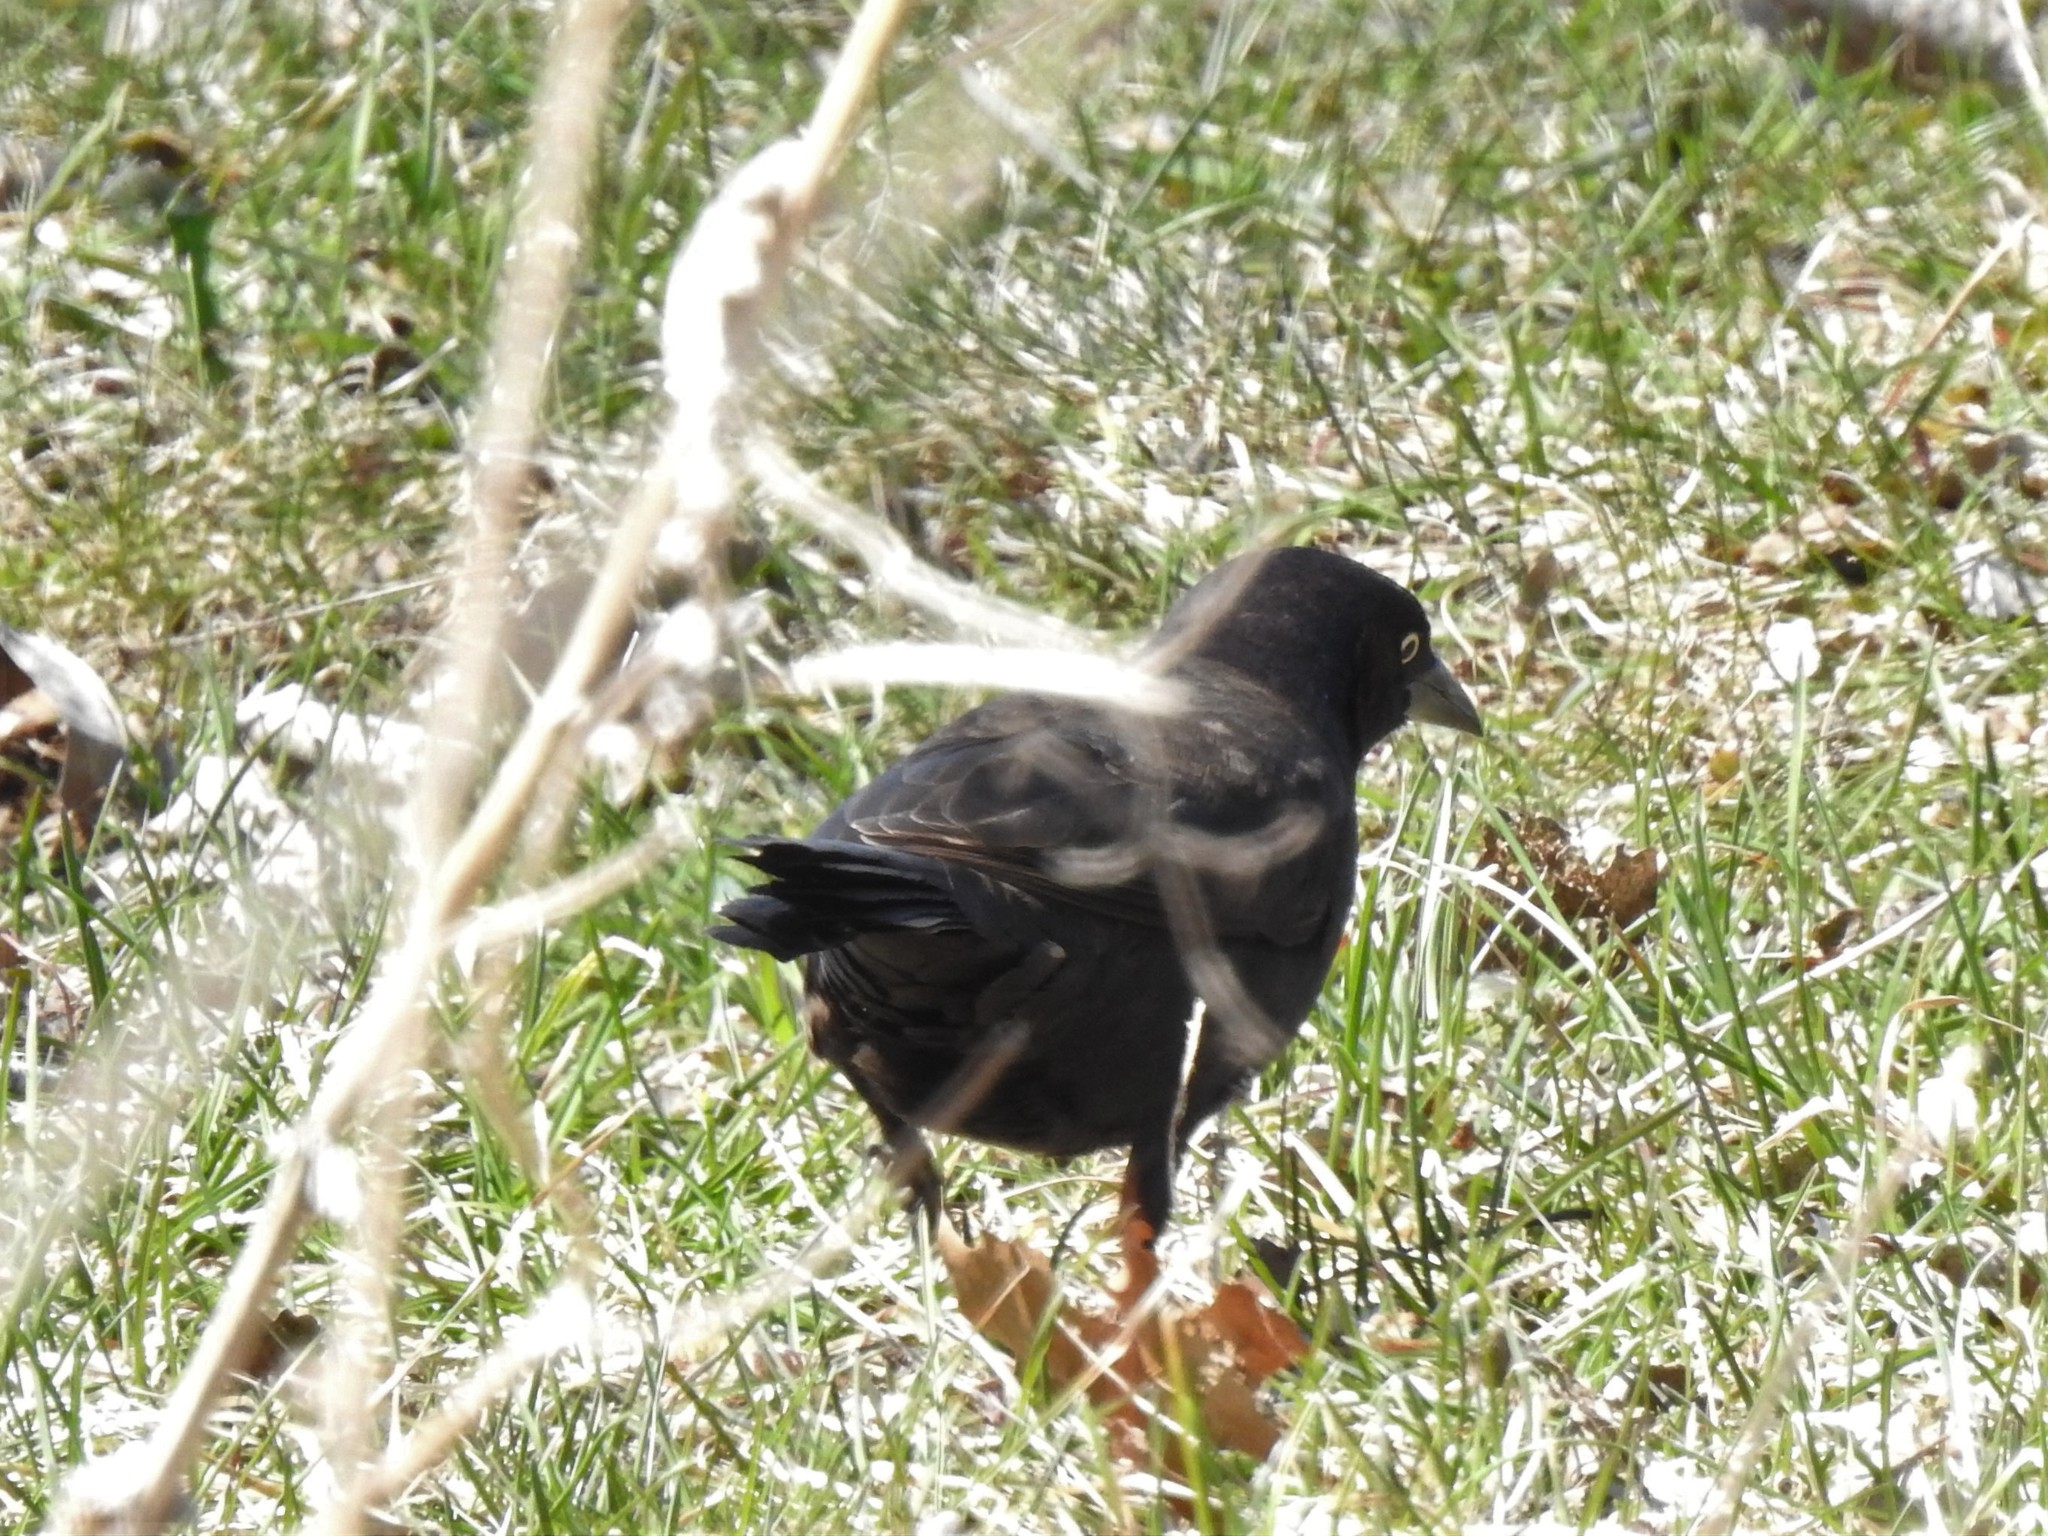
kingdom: Animalia
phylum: Chordata
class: Aves
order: Passeriformes
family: Icteridae
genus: Quiscalus
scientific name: Quiscalus quiscula
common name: Common grackle
